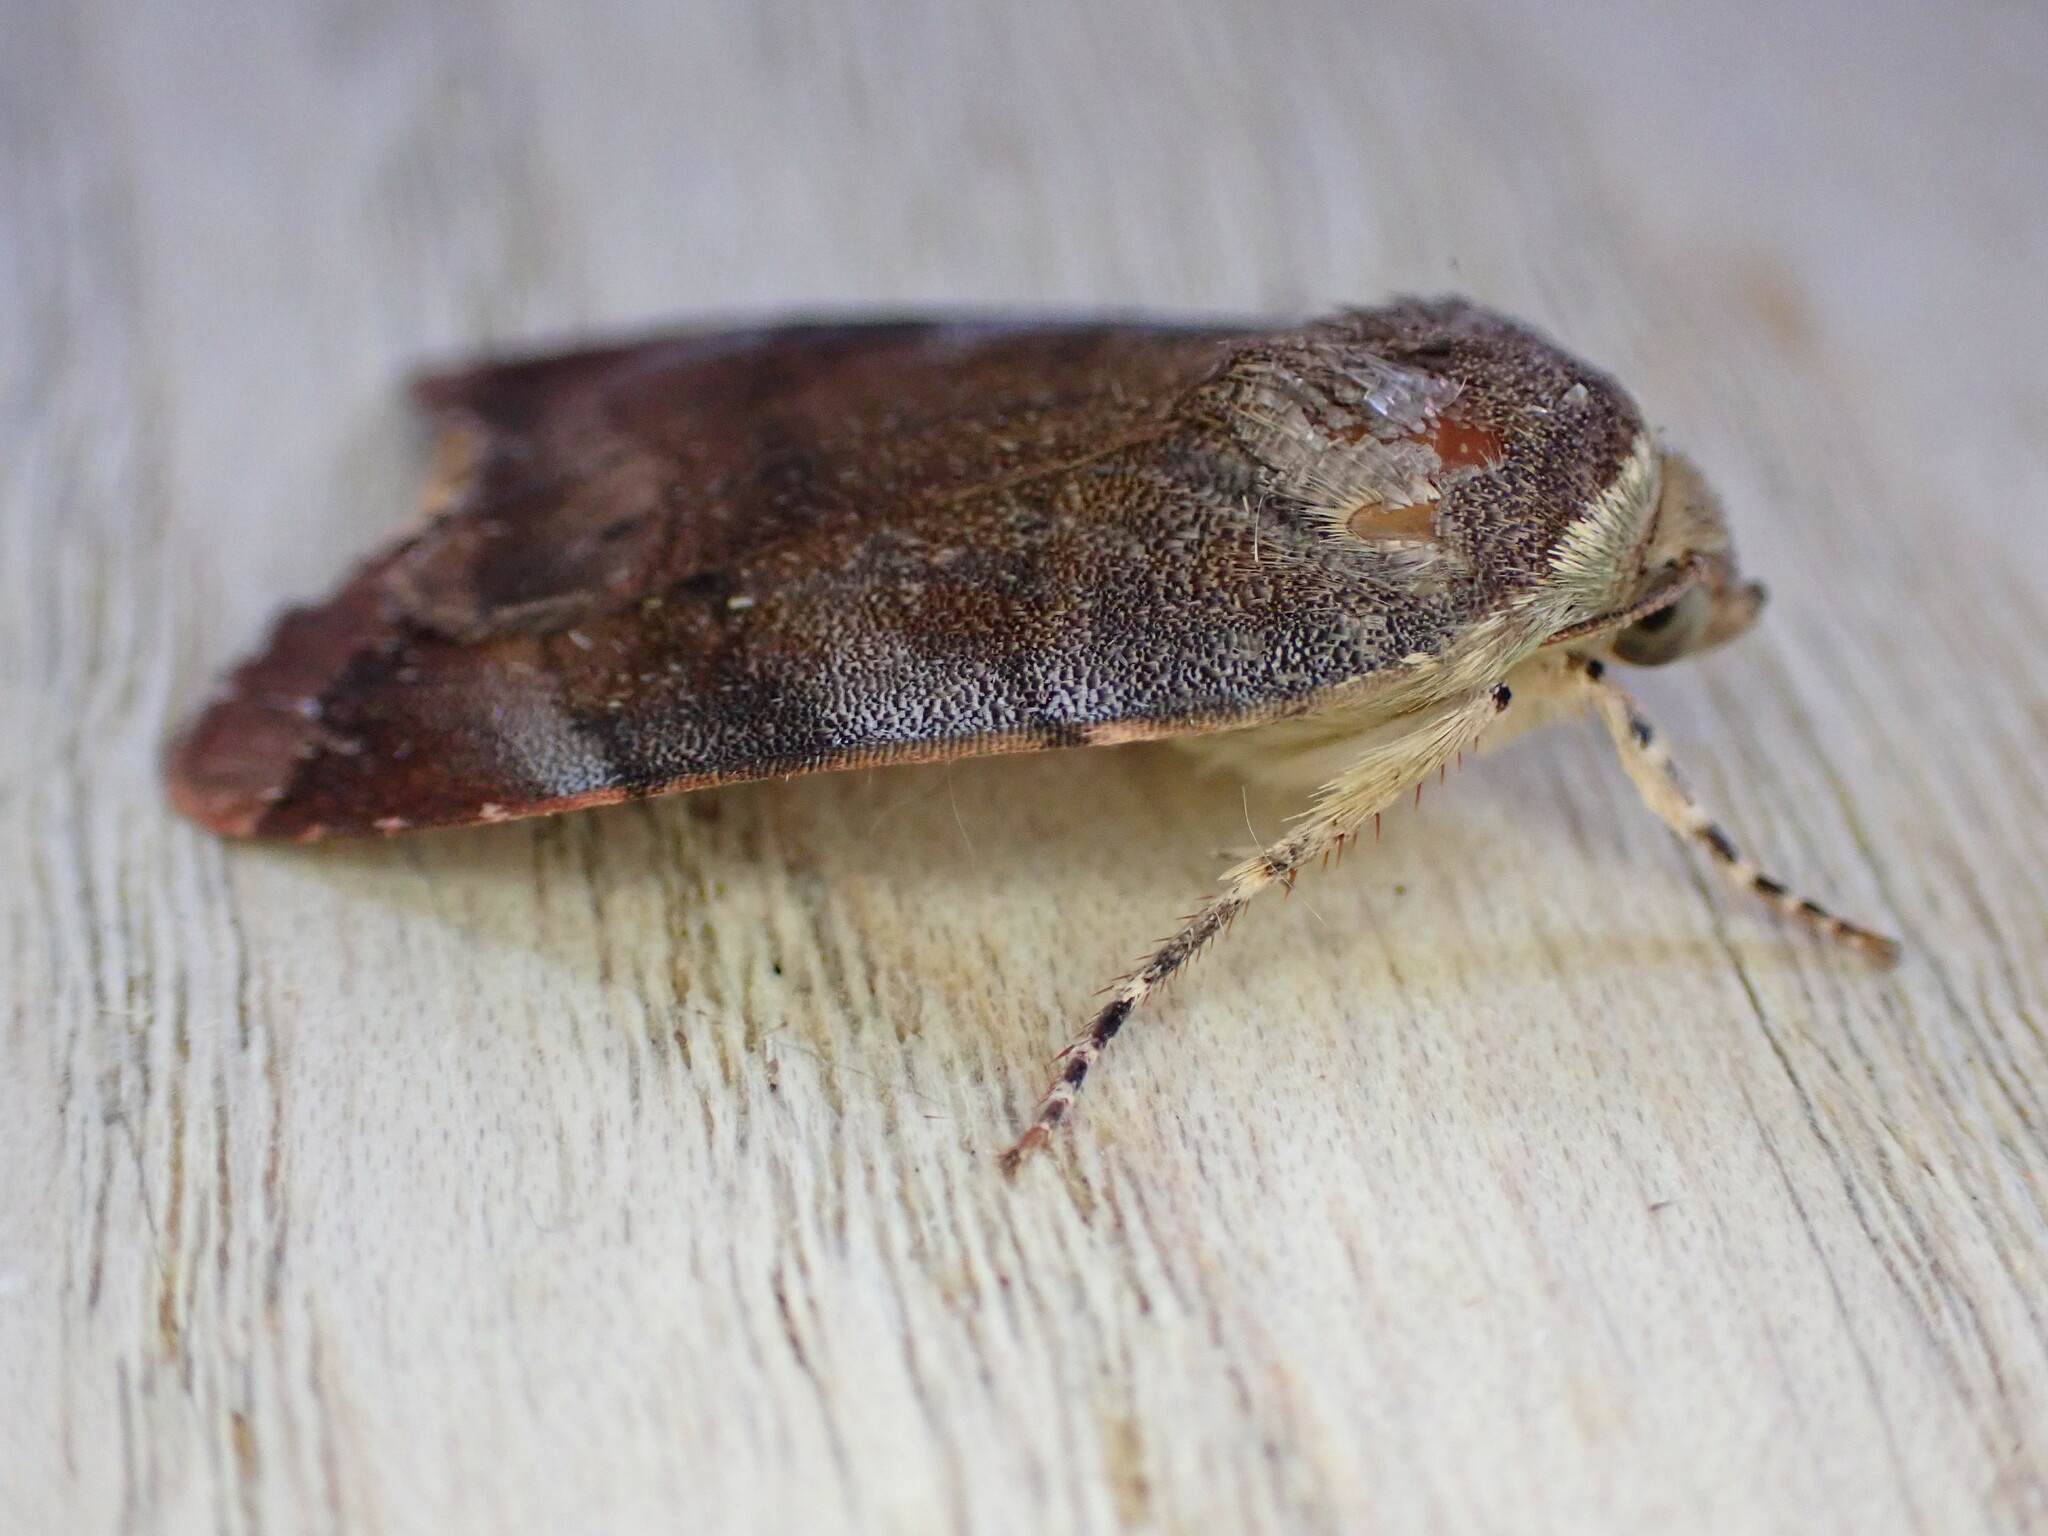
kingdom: Animalia
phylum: Arthropoda
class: Insecta
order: Lepidoptera
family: Noctuidae
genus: Noctua
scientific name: Noctua janthe
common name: Lesser broad-bordered yellow underwing
